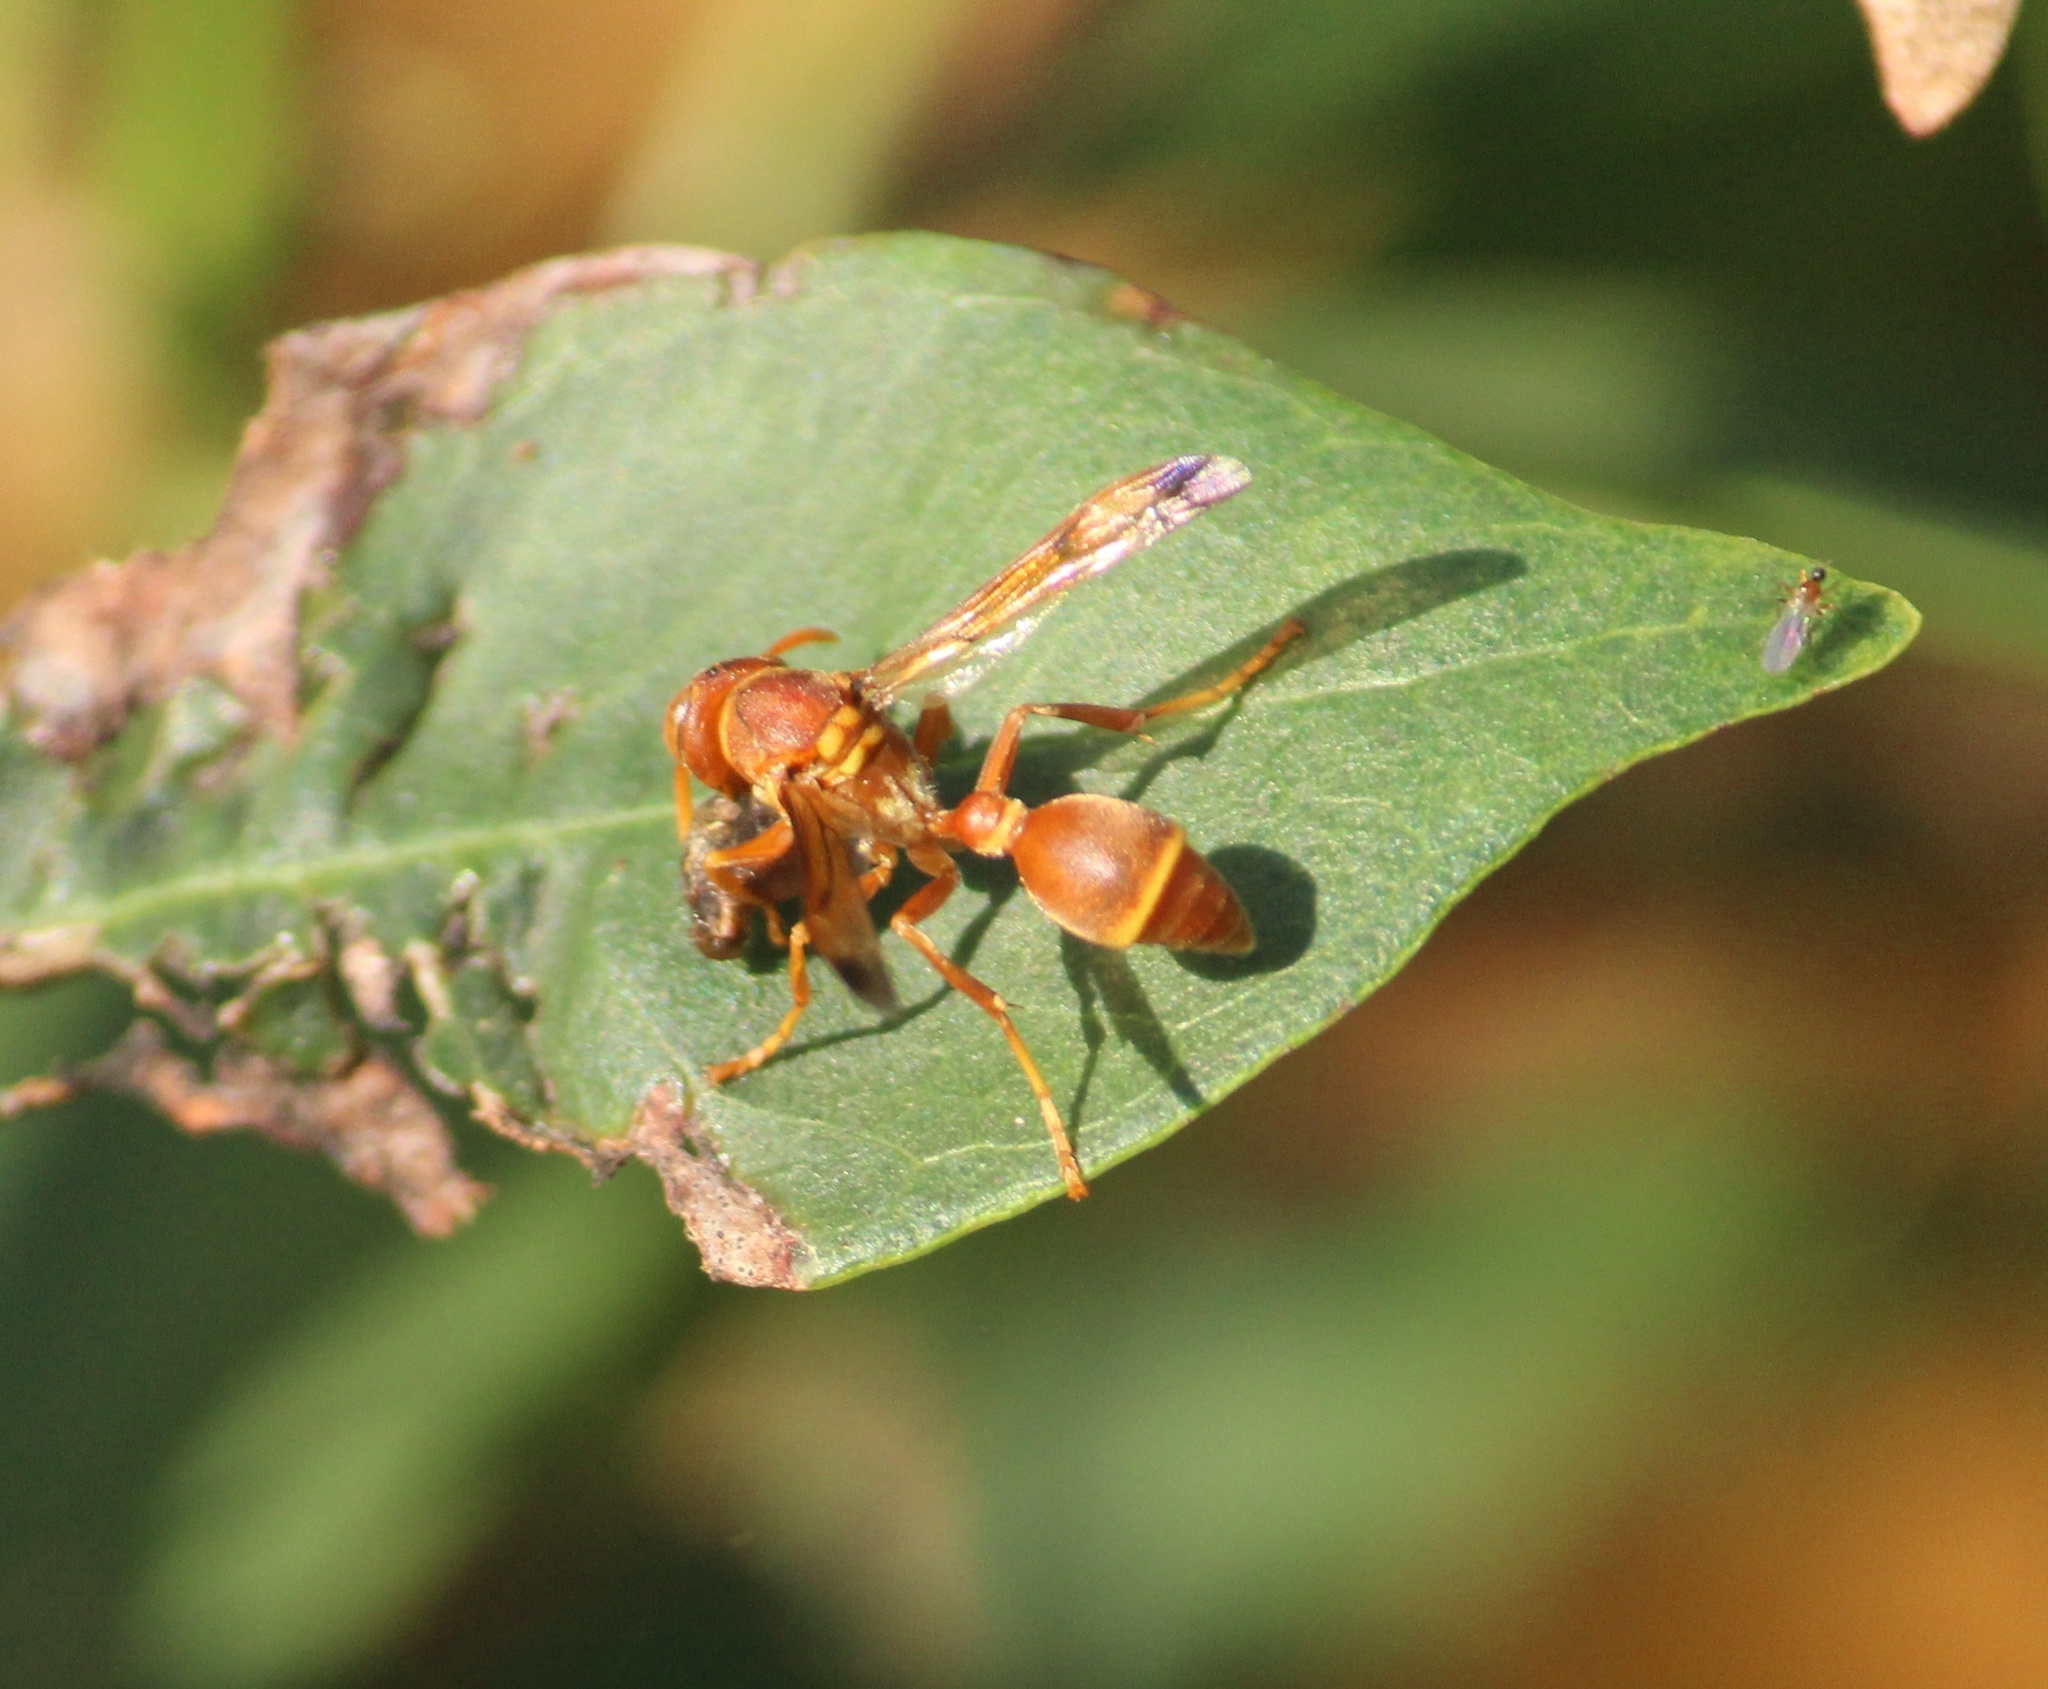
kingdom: Animalia
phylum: Arthropoda
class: Insecta
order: Hymenoptera
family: Vespidae
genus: Ropalidia
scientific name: Ropalidia marginata
